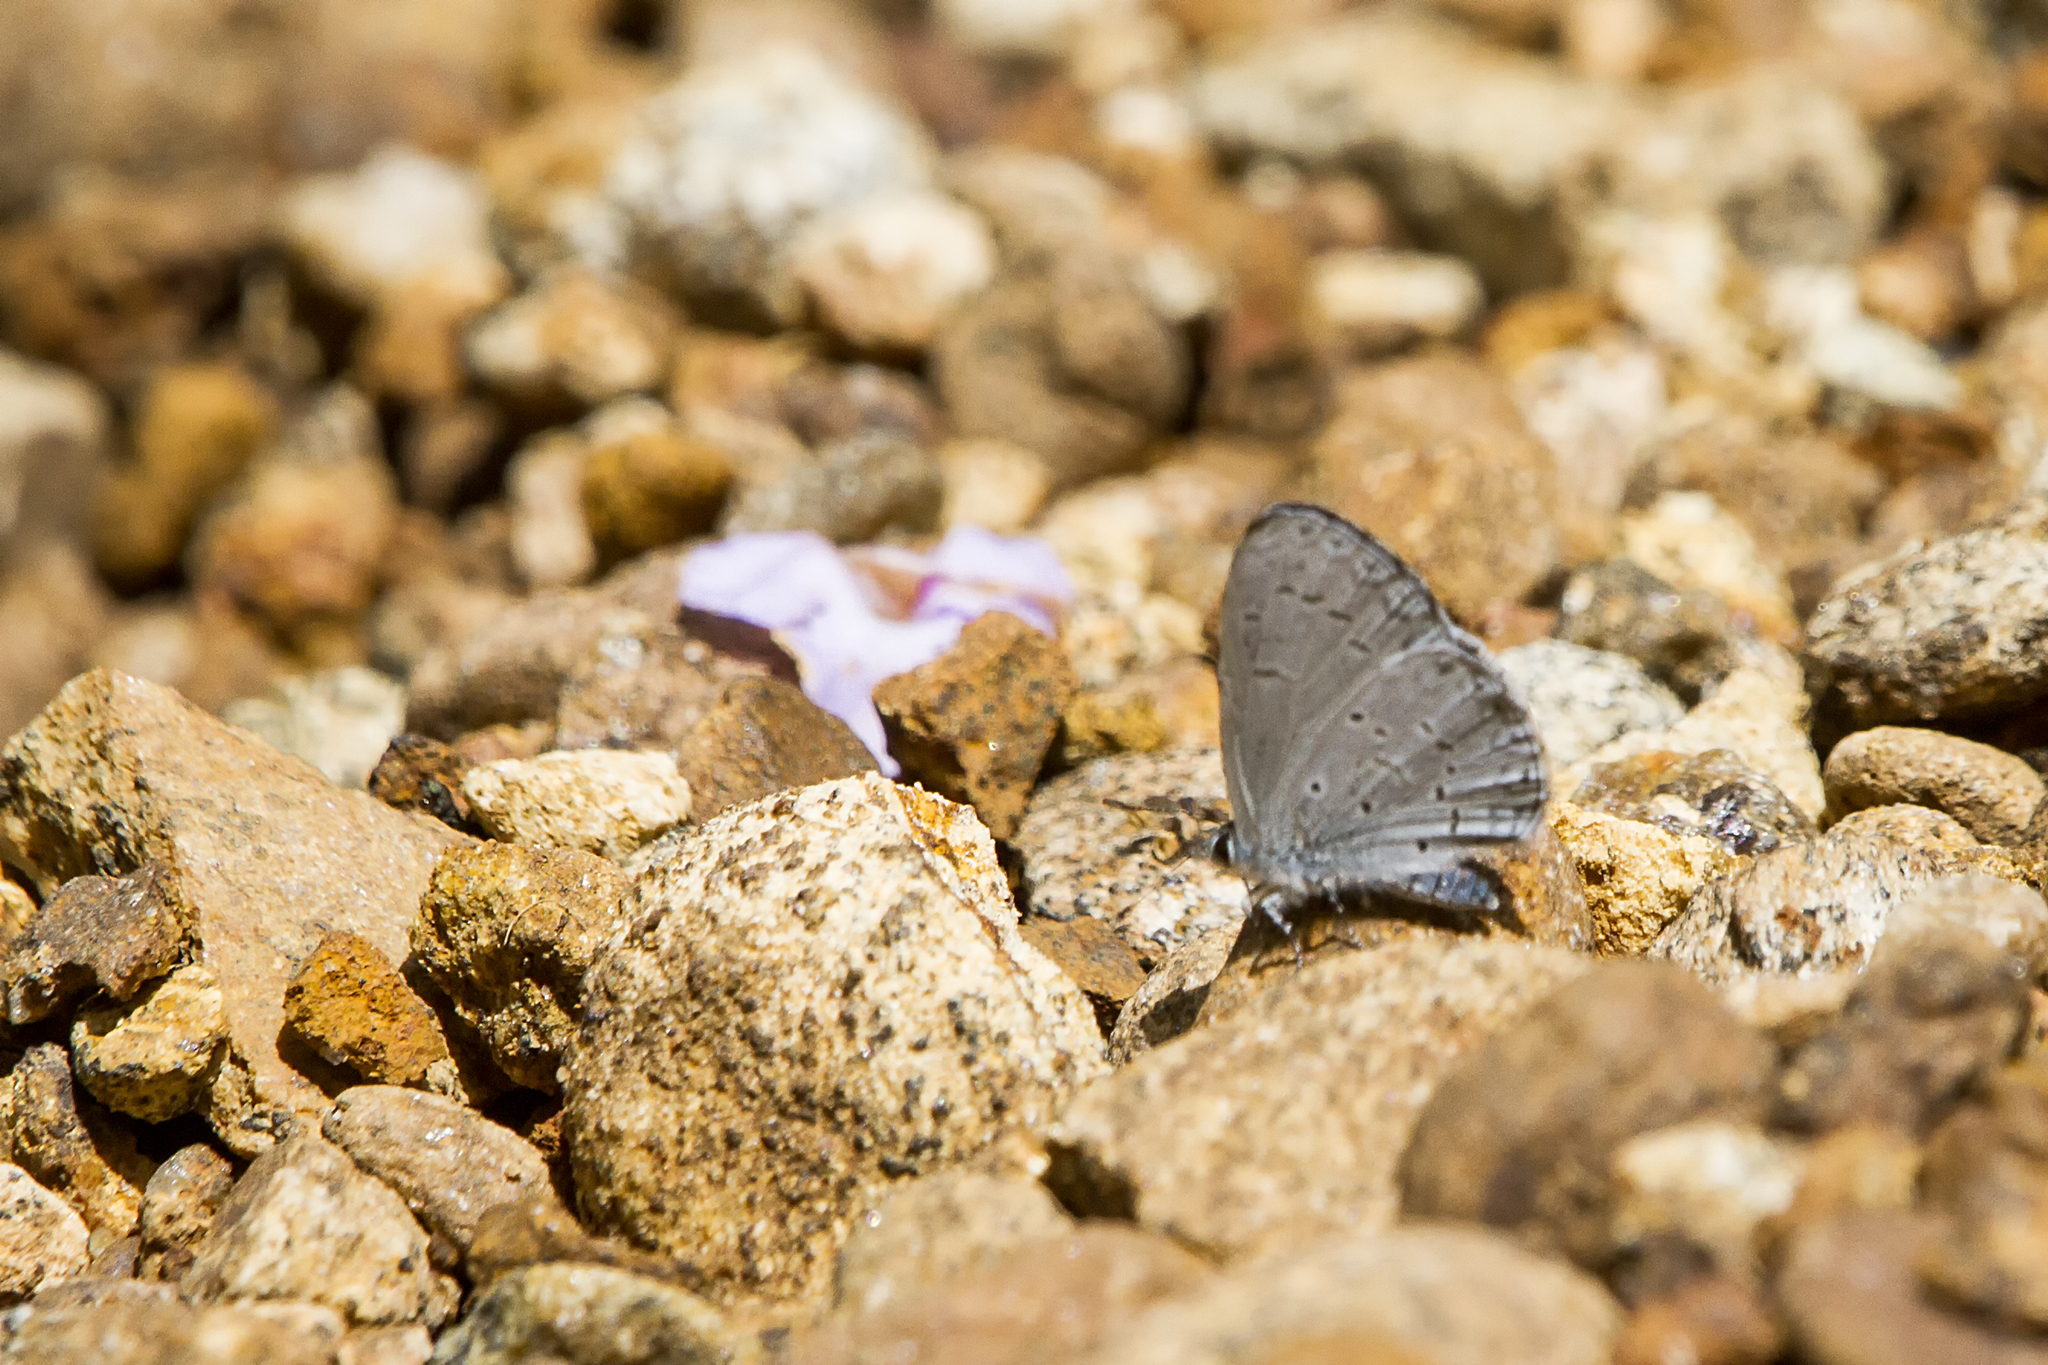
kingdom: Animalia
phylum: Arthropoda
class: Insecta
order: Lepidoptera
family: Lycaenidae
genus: Celastrina
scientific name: Celastrina lavendularis
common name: Plain hedge blue
